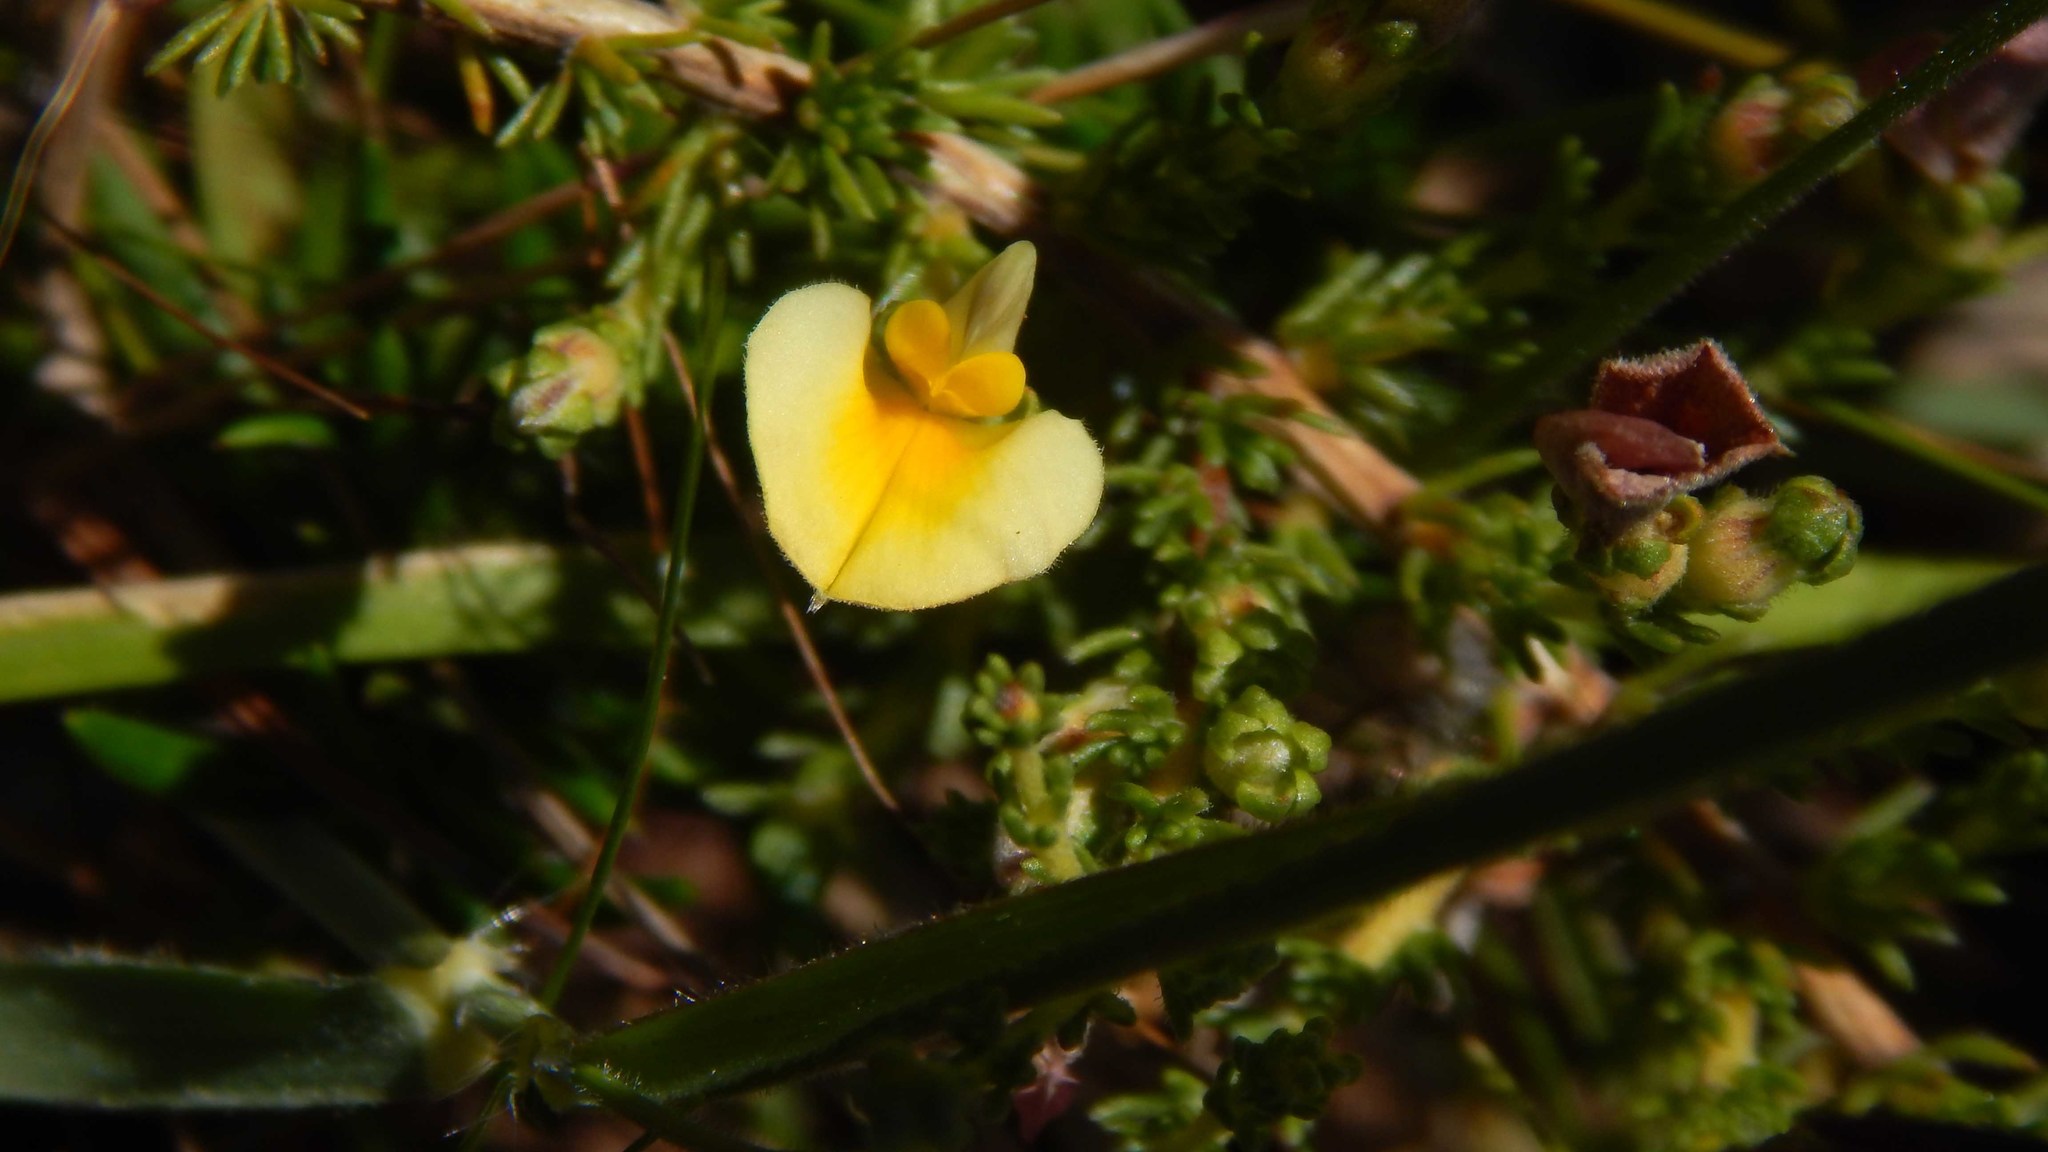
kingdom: Plantae
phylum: Tracheophyta
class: Magnoliopsida
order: Fabales
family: Fabaceae
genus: Aspalathus
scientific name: Aspalathus cymbiformis
